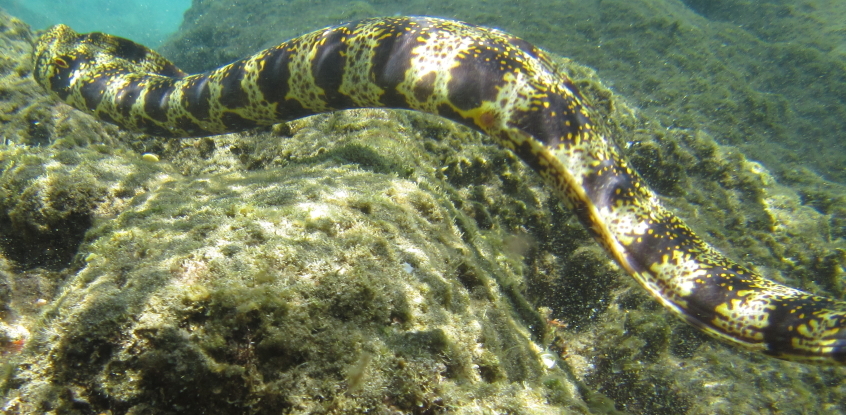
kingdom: Animalia
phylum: Chordata
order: Anguilliformes
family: Muraenidae
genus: Echidna
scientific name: Echidna nebulosa
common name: Snowflake moray
